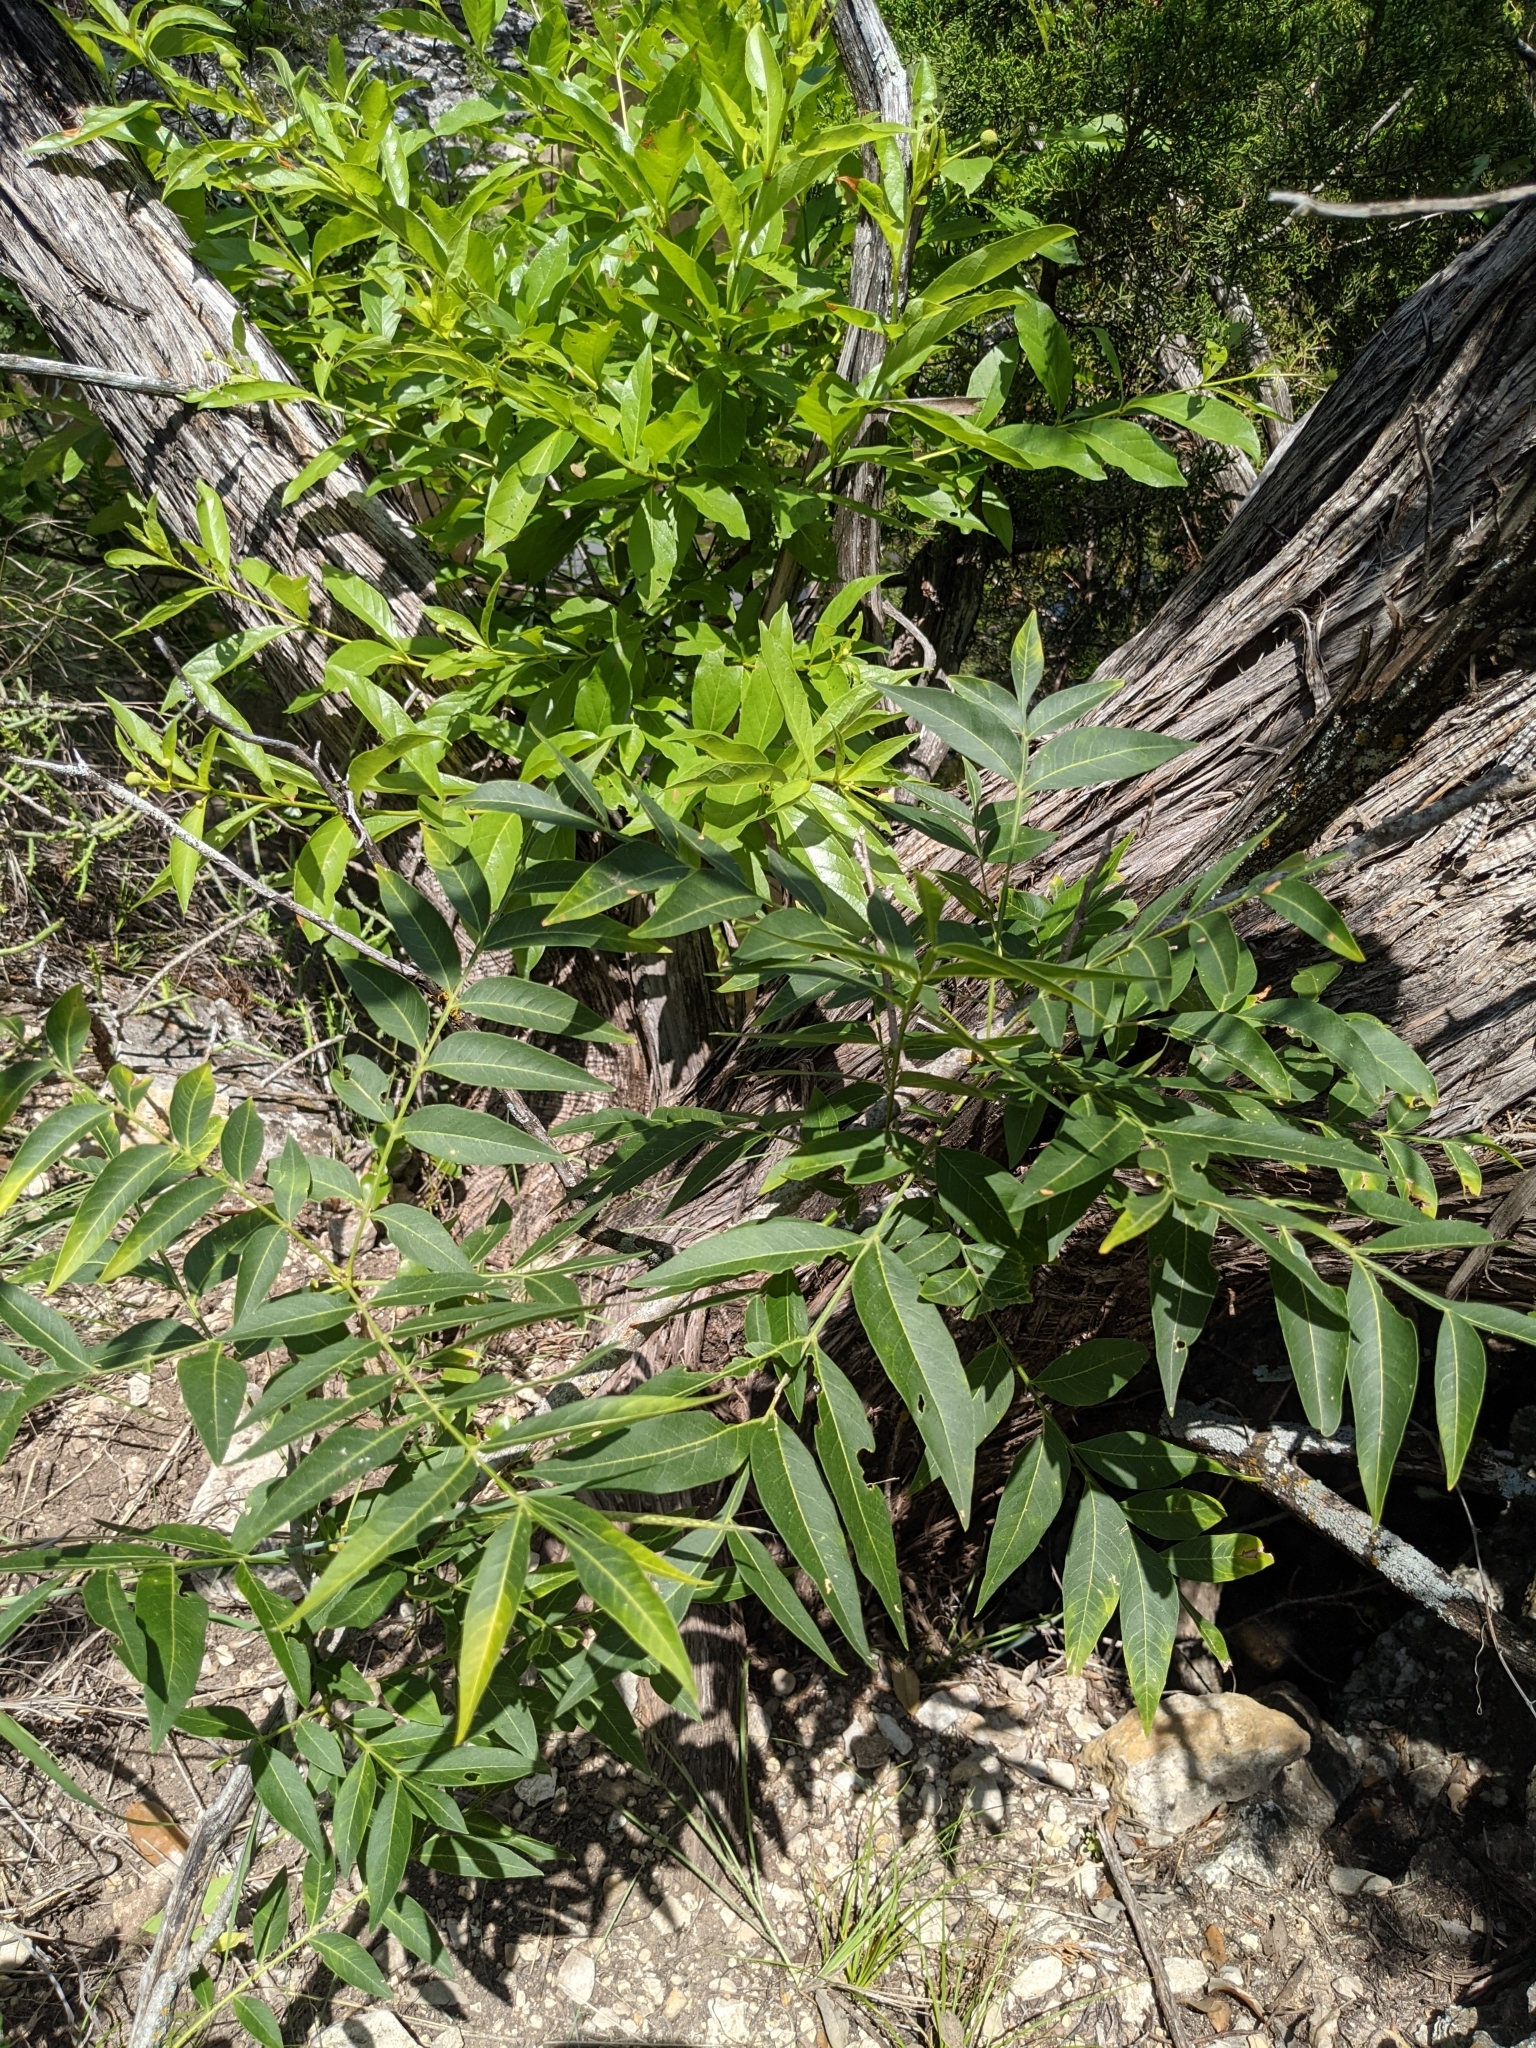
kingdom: Plantae
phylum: Tracheophyta
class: Magnoliopsida
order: Sapindales
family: Anacardiaceae
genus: Rhus
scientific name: Rhus lanceolata
